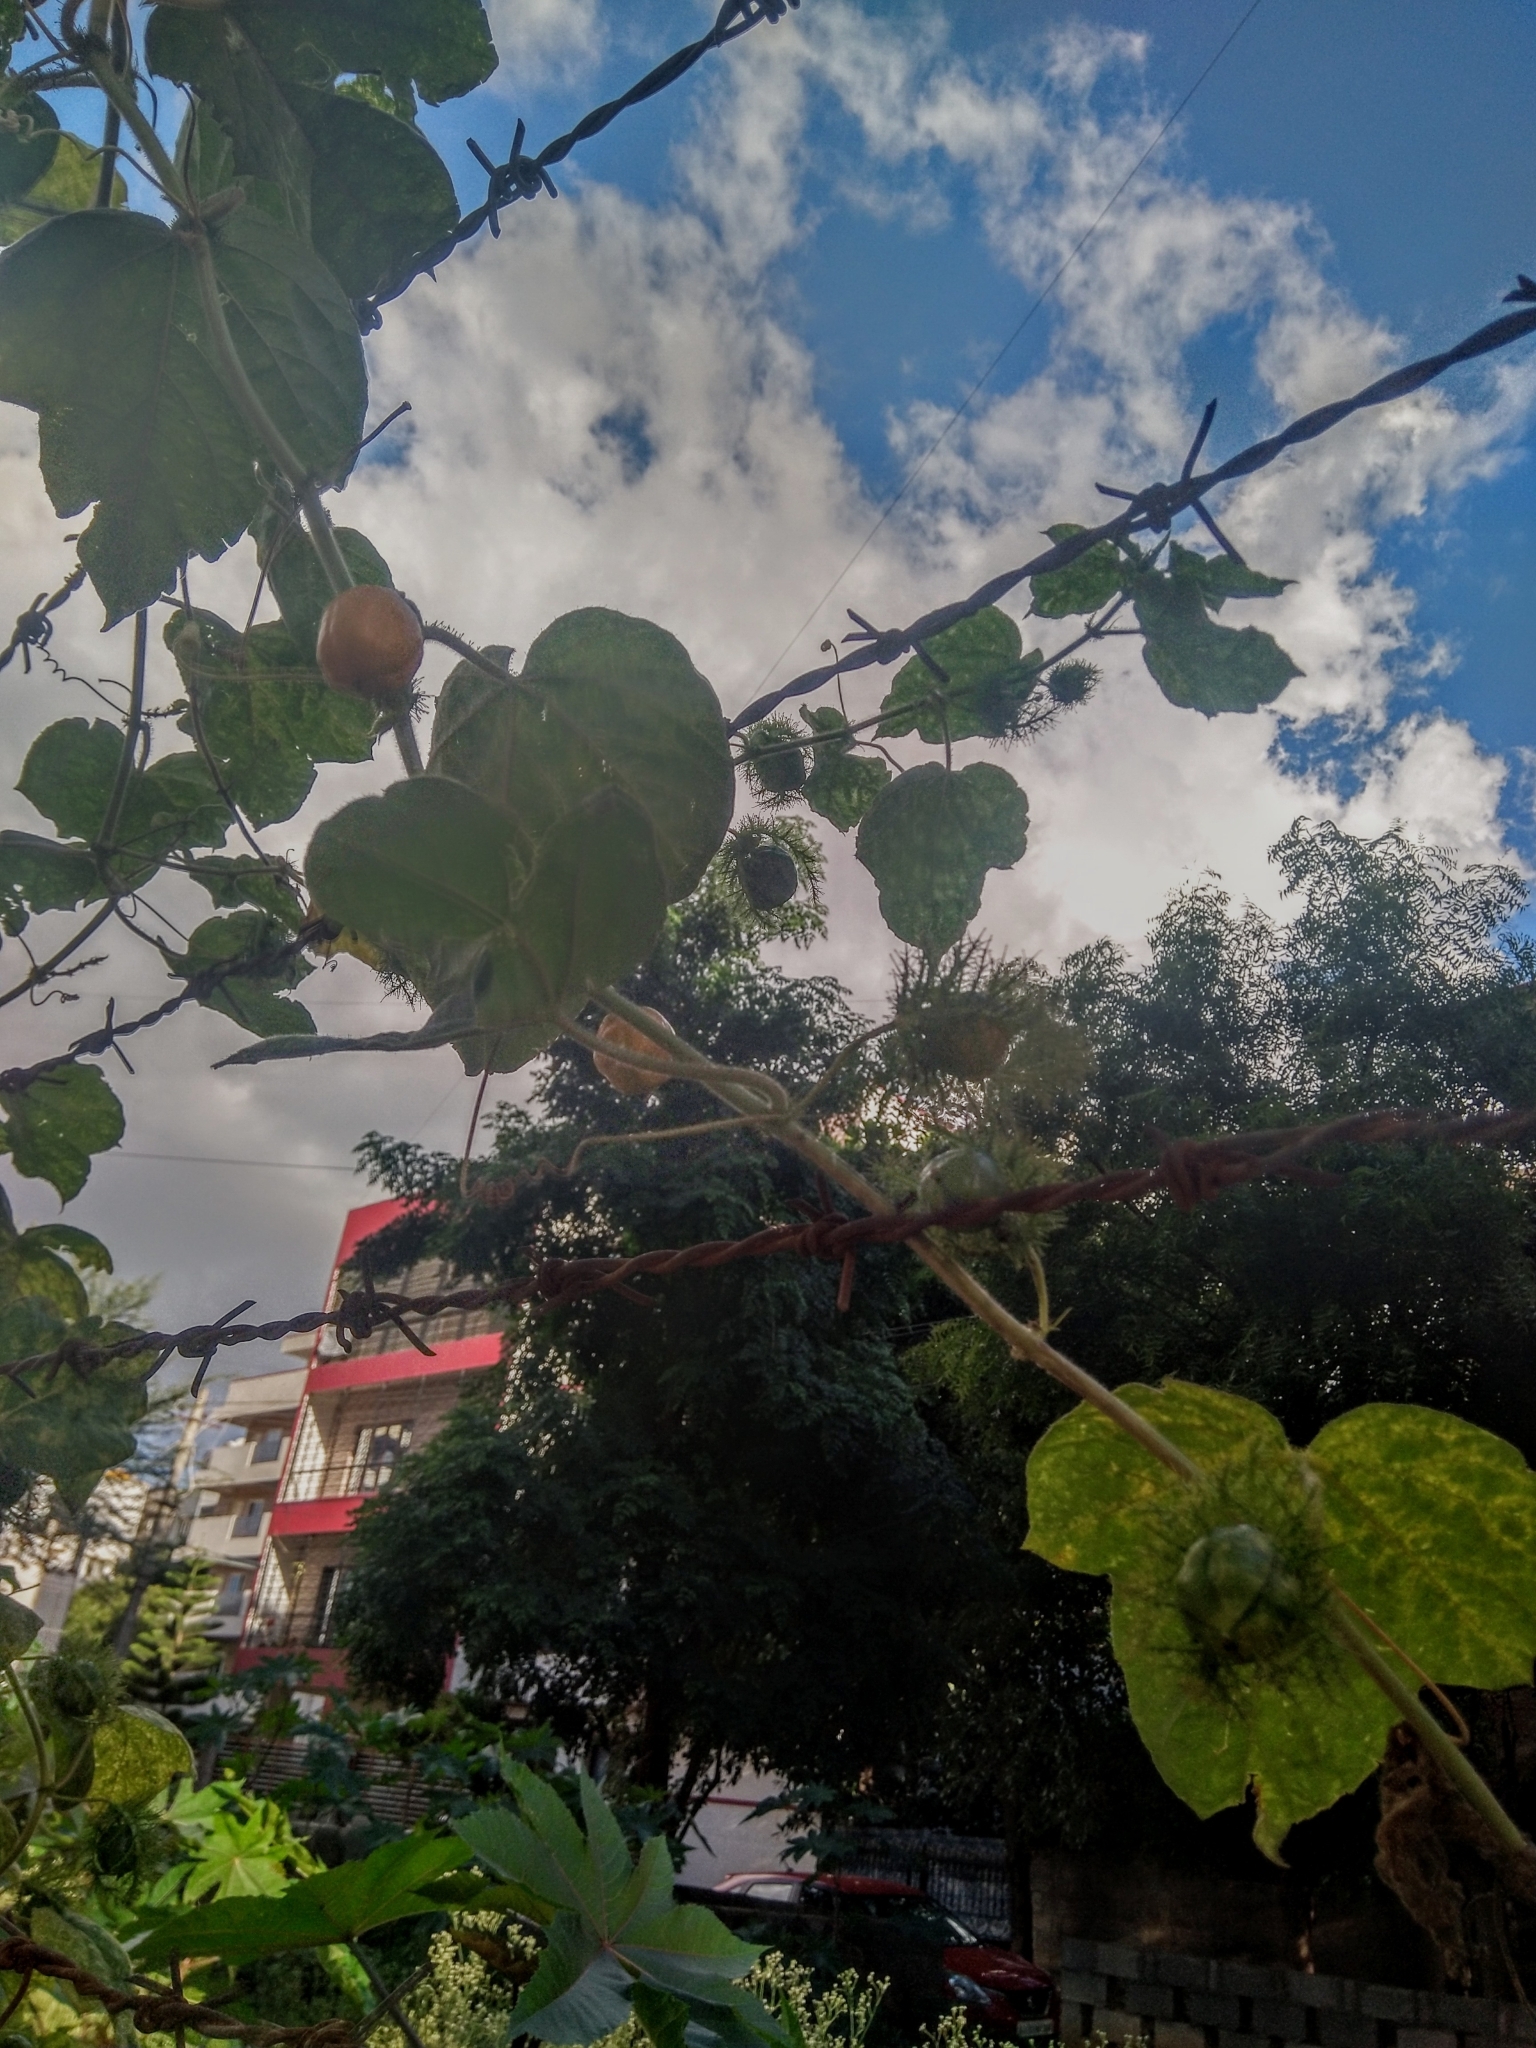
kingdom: Plantae
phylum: Tracheophyta
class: Magnoliopsida
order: Malpighiales
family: Passifloraceae
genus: Passiflora
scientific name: Passiflora foetida
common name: Fetid passionflower
